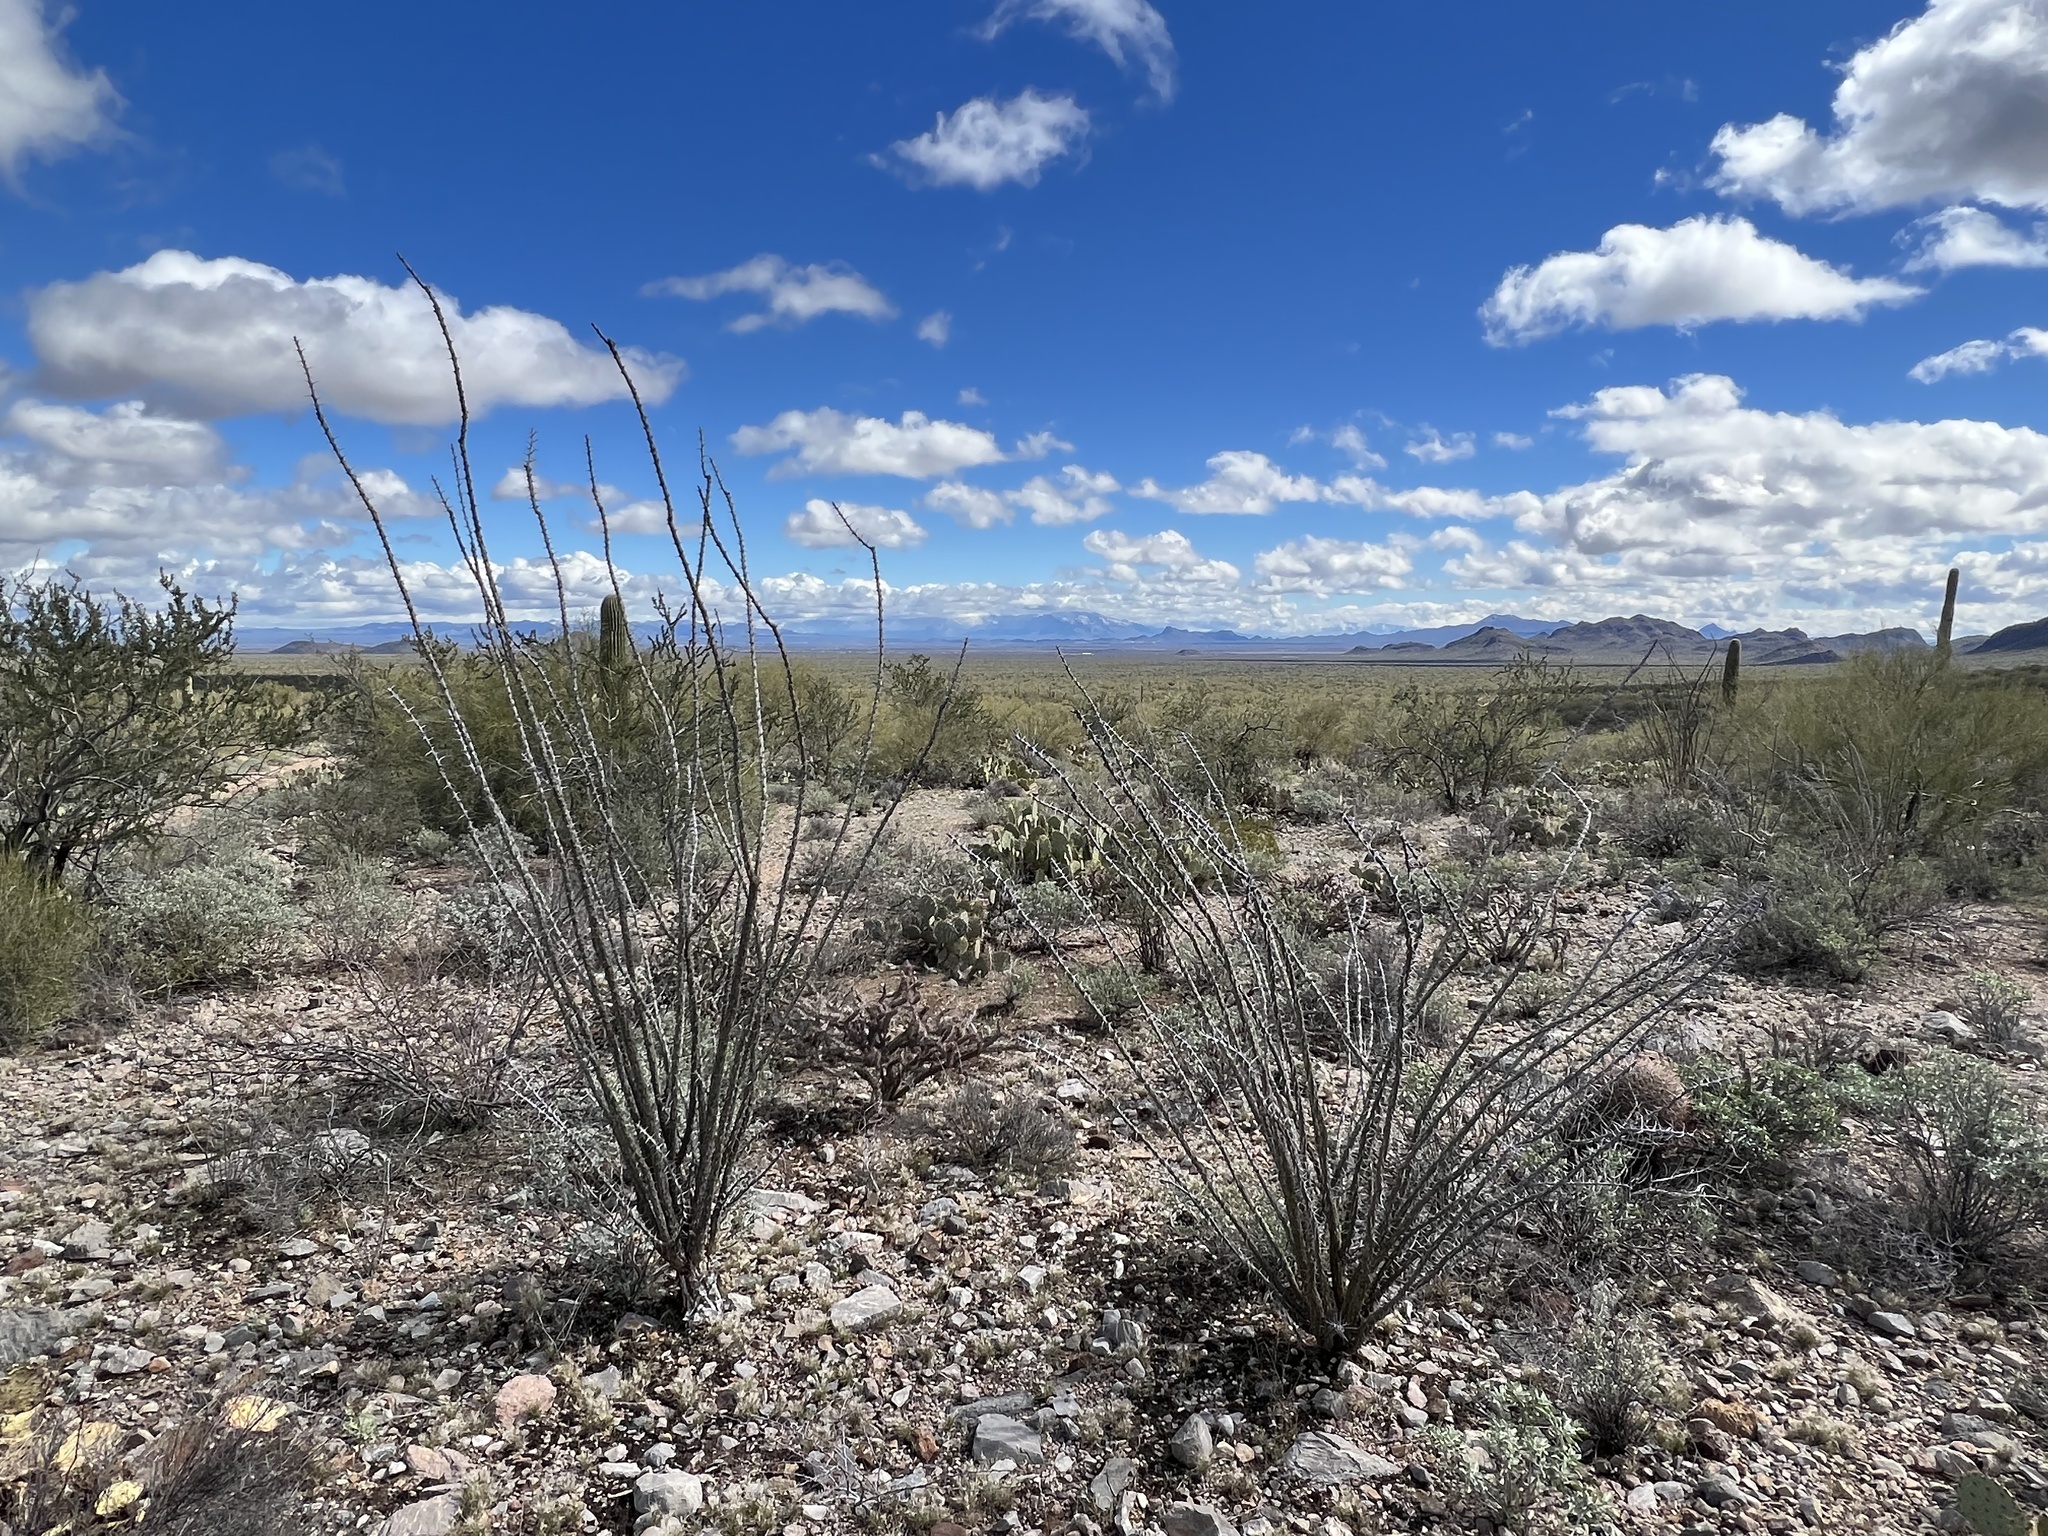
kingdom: Plantae
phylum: Tracheophyta
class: Magnoliopsida
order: Ericales
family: Fouquieriaceae
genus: Fouquieria
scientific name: Fouquieria splendens
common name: Vine-cactus
